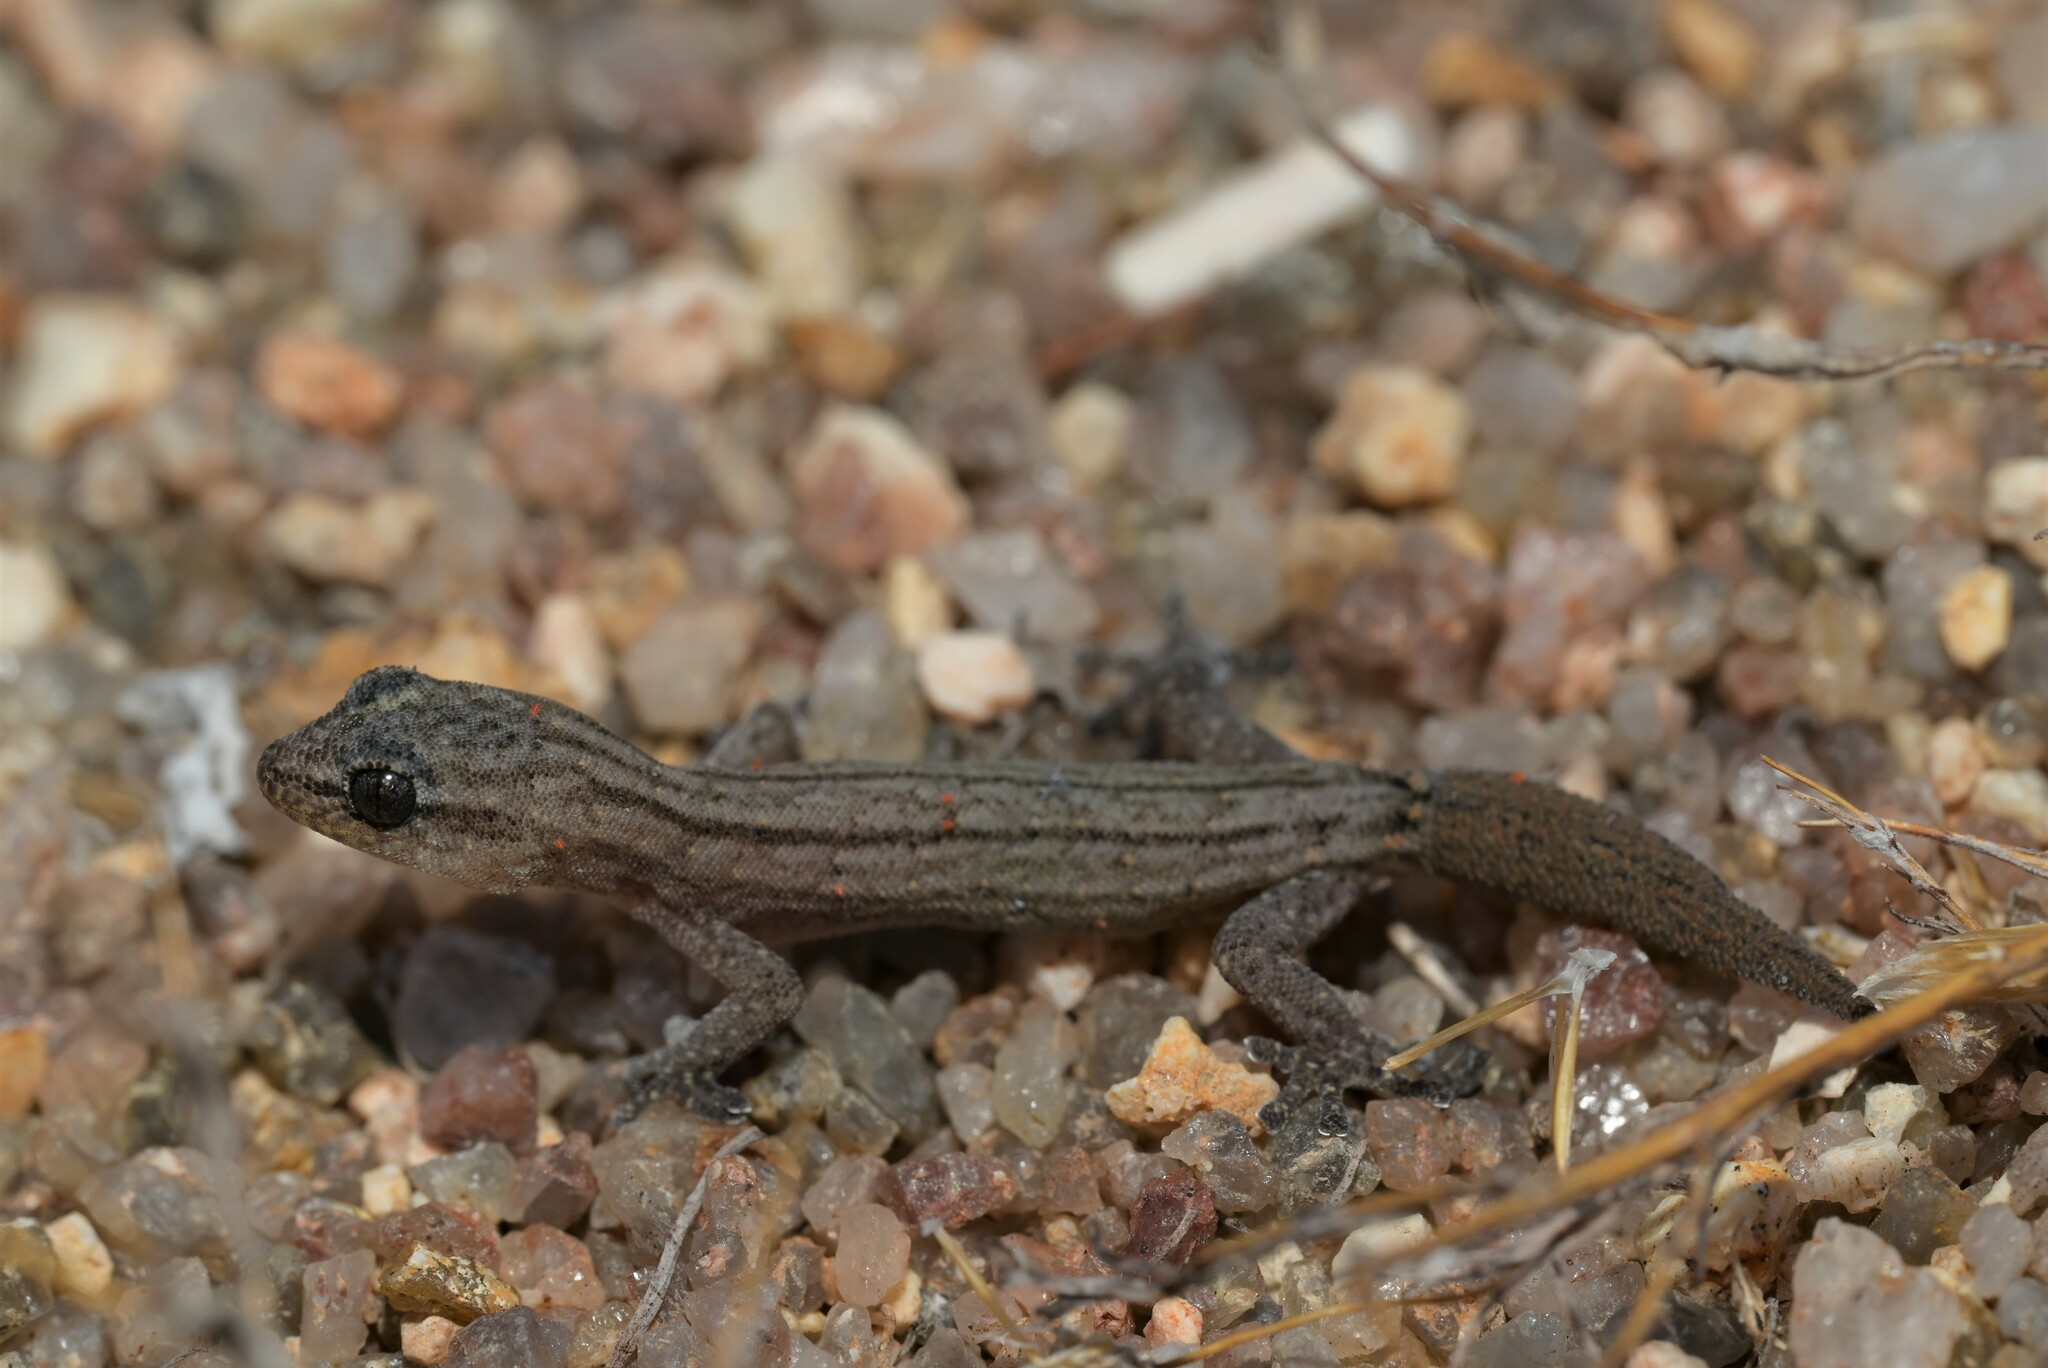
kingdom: Animalia
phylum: Chordata
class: Squamata
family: Gekkonidae
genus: Goggia
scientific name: Goggia lineata
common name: Striped dwarf leaf-toed gecko
